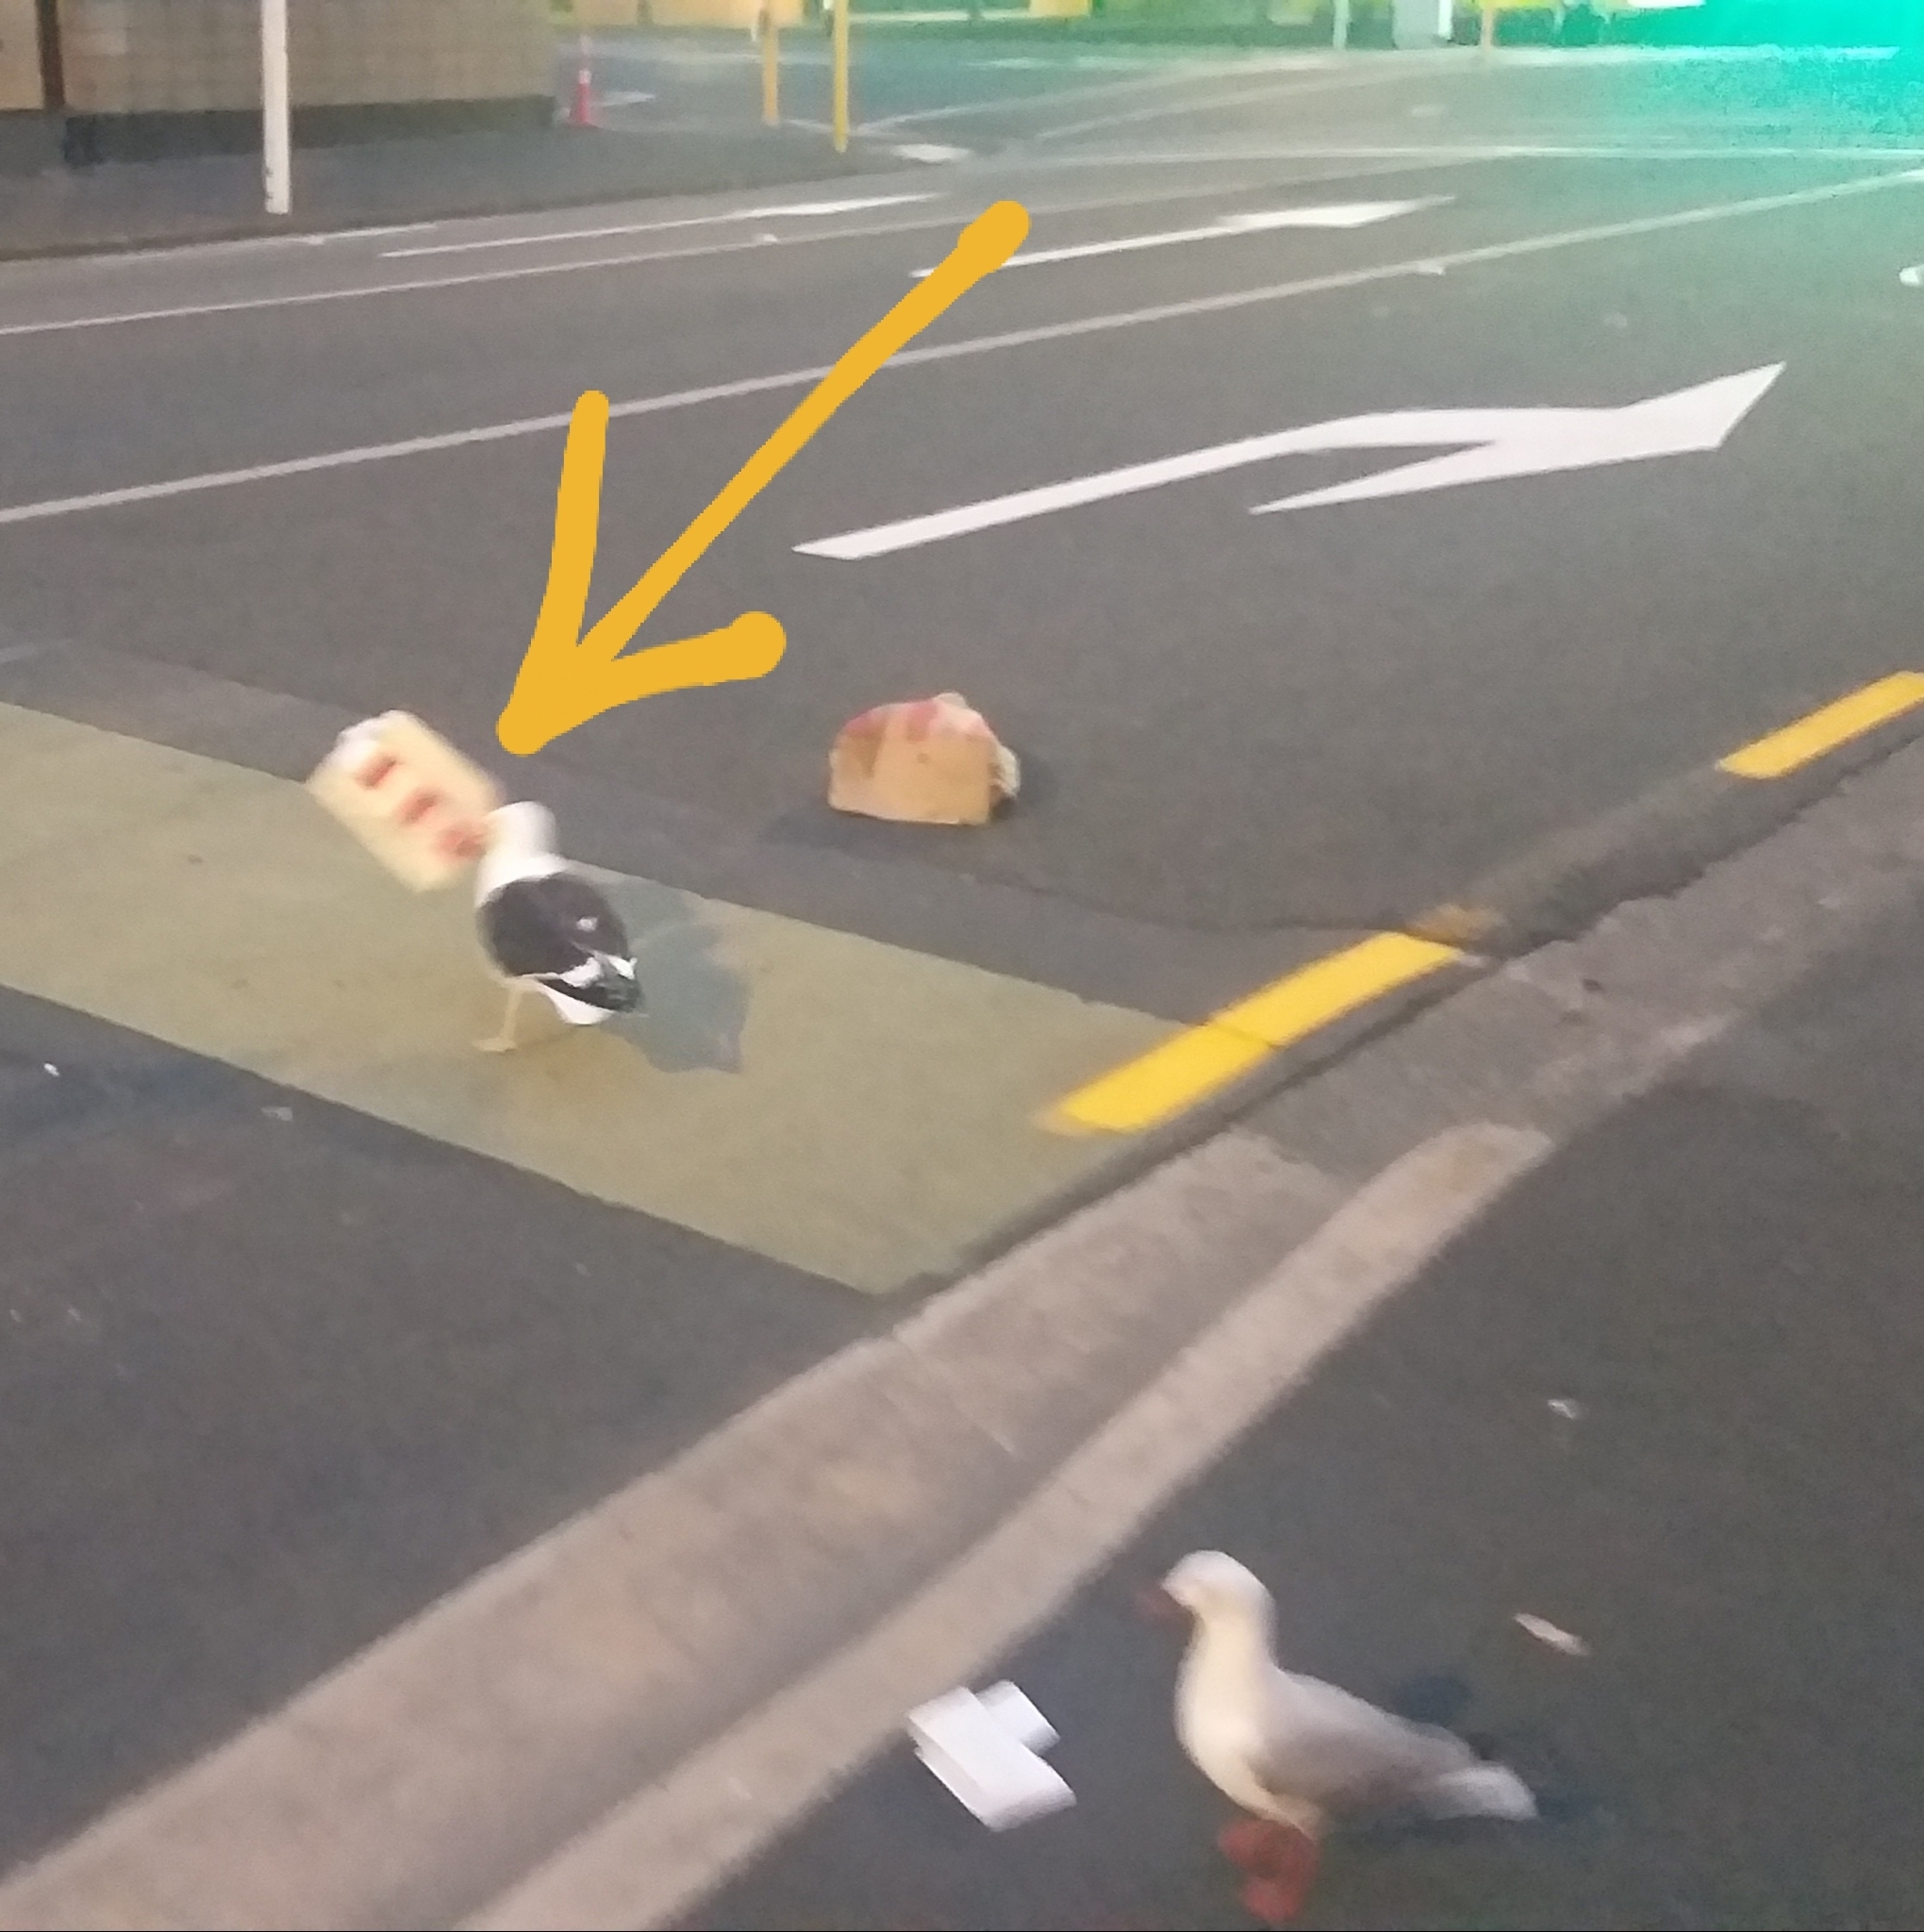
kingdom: Animalia
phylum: Chordata
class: Aves
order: Charadriiformes
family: Laridae
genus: Larus
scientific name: Larus dominicanus
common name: Kelp gull
